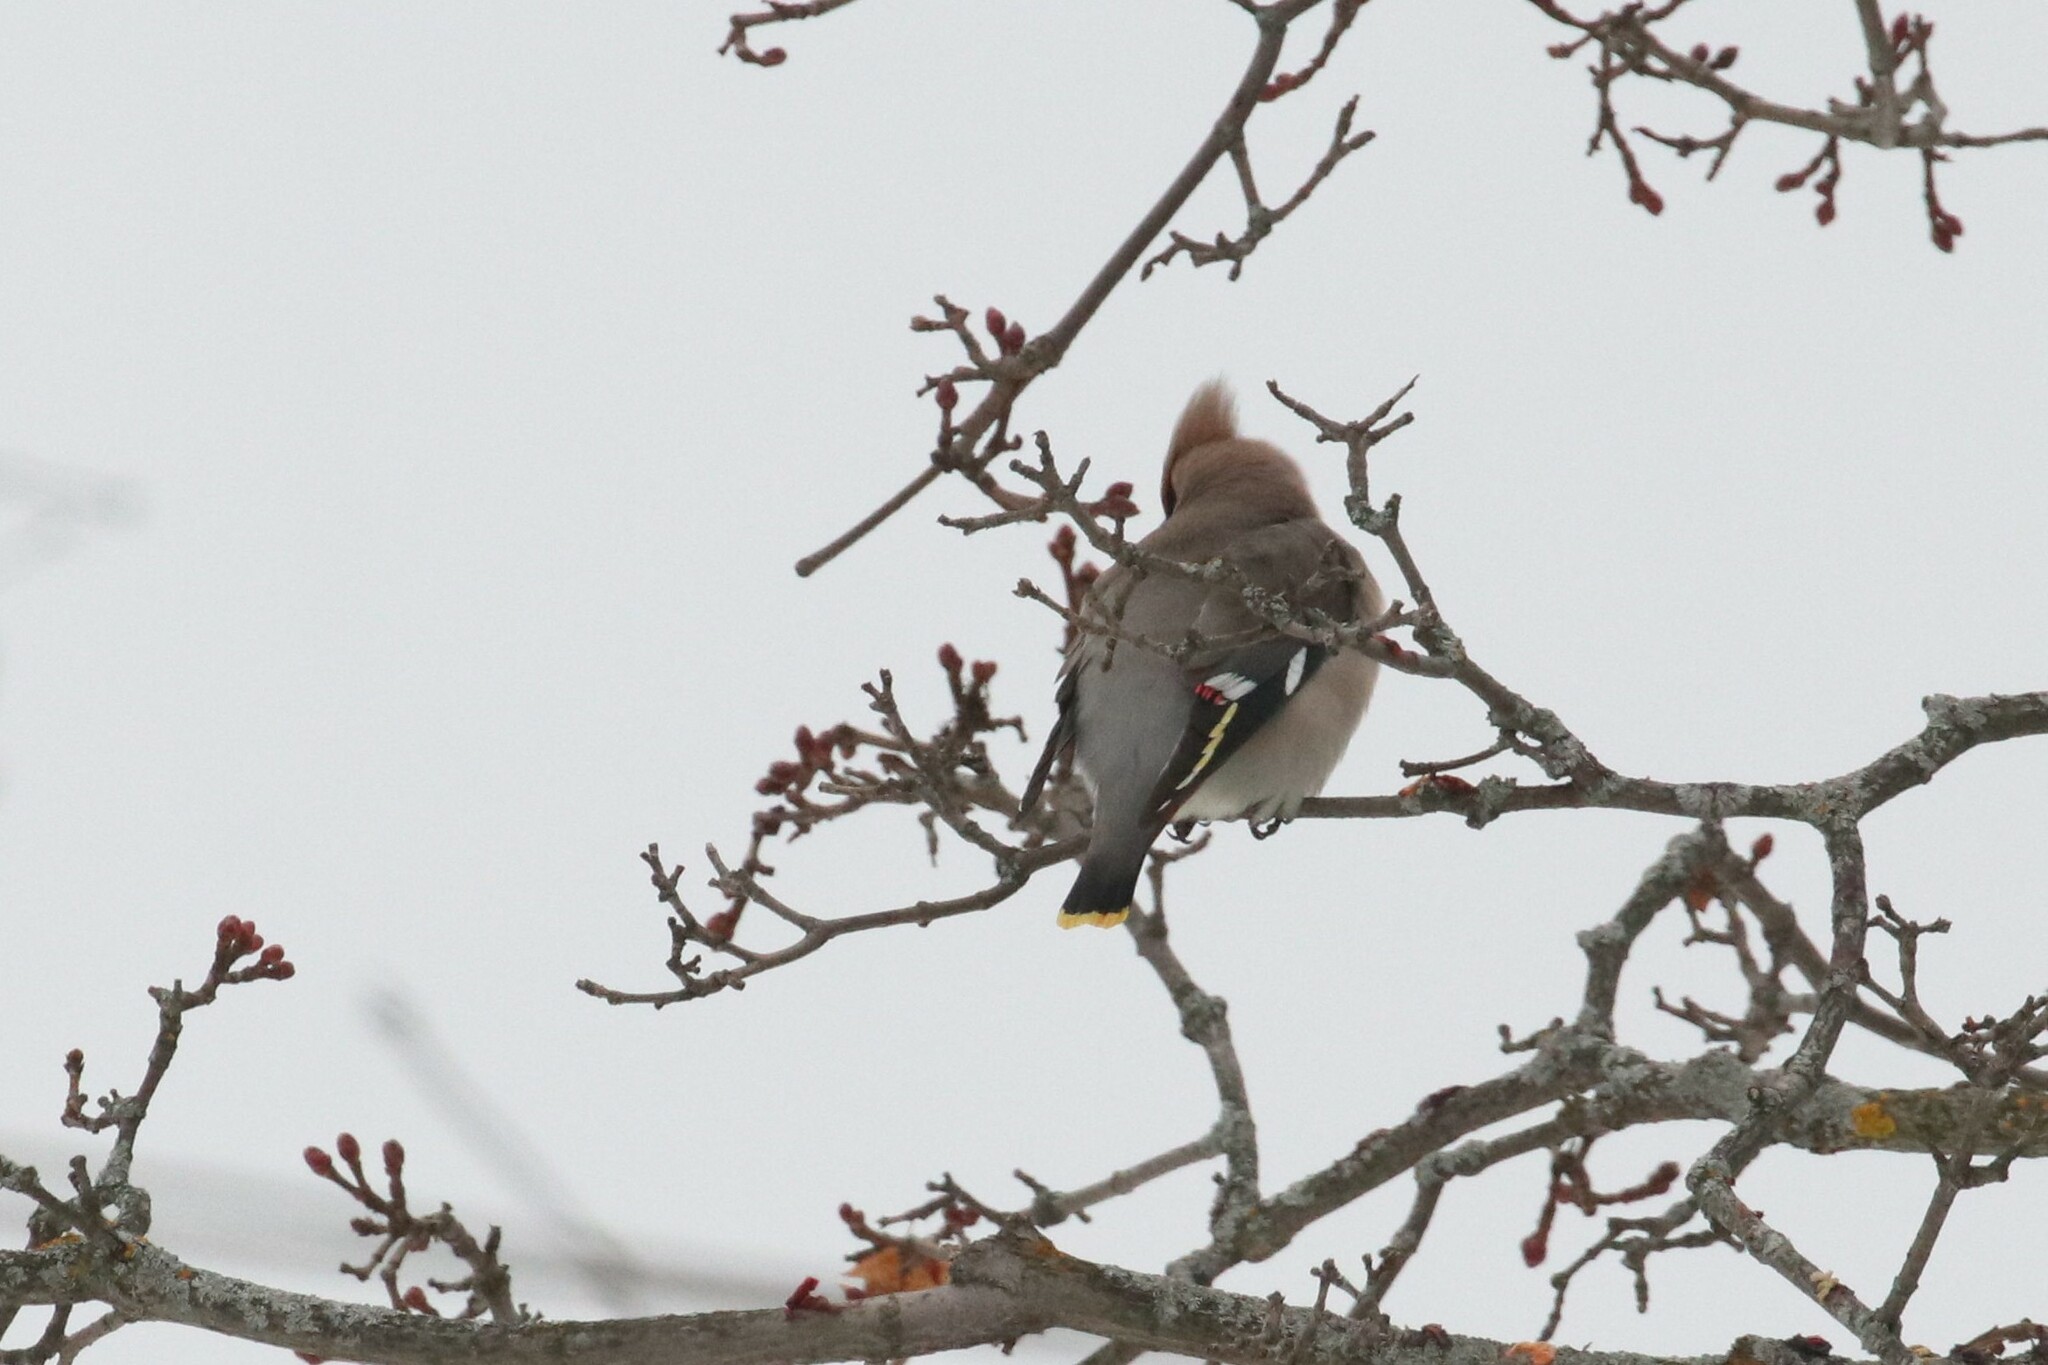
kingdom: Animalia
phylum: Chordata
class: Aves
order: Passeriformes
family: Bombycillidae
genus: Bombycilla
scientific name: Bombycilla garrulus
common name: Bohemian waxwing
